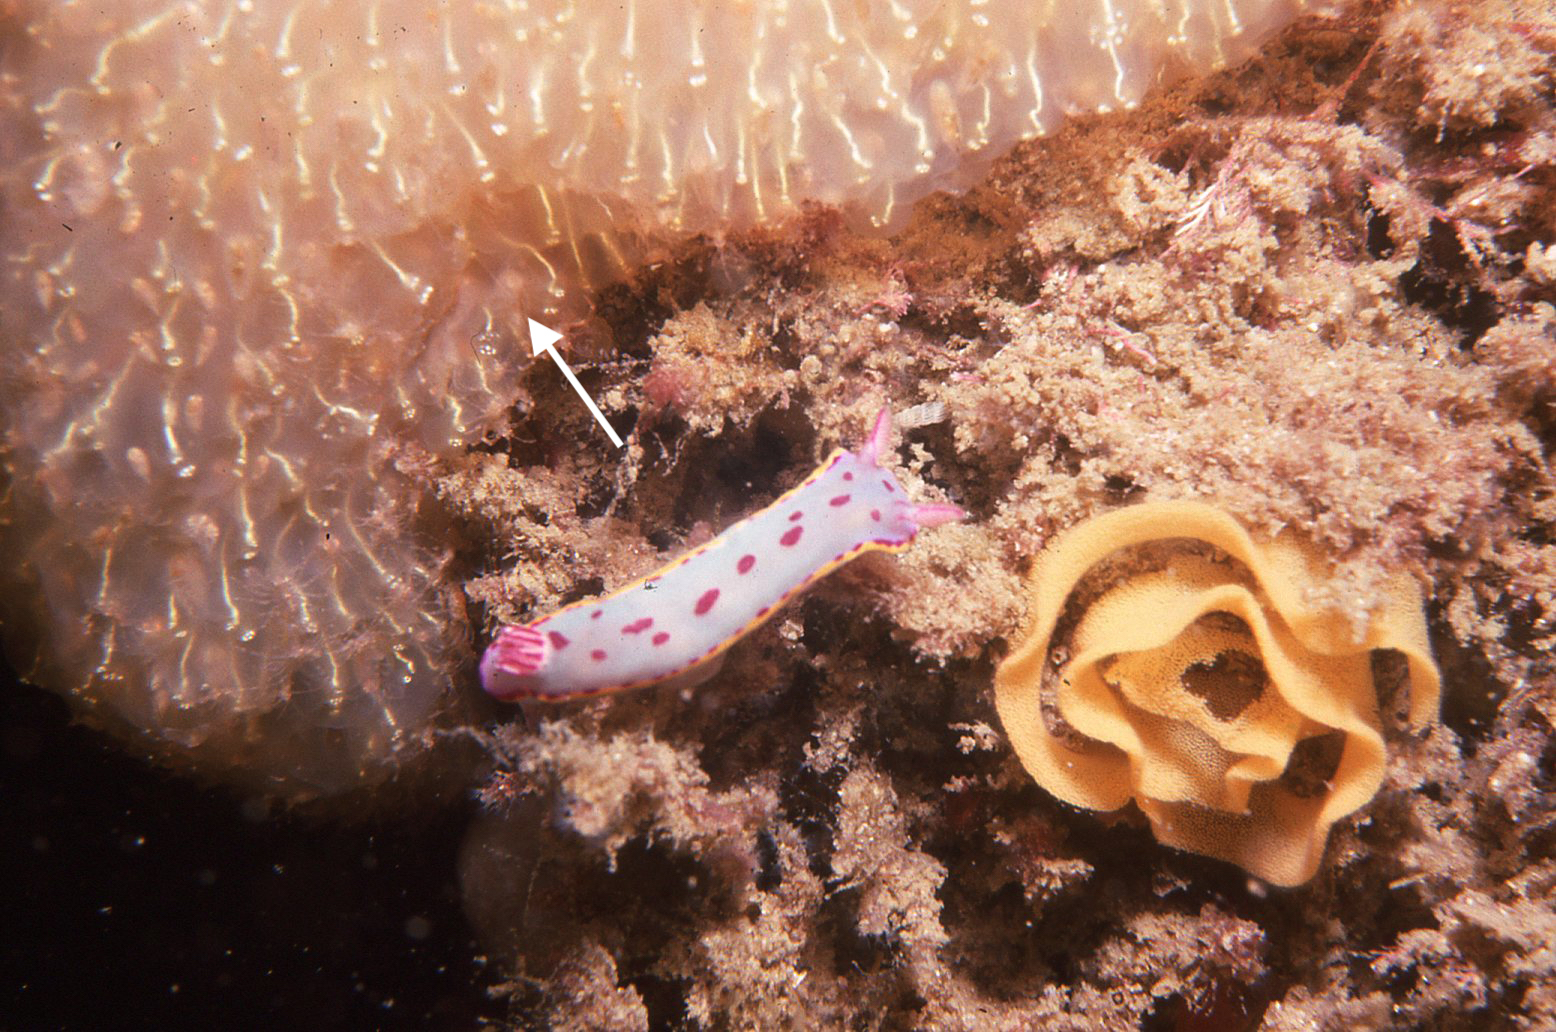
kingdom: Animalia
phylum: Chordata
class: Ascidiacea
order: Aplousobranchia
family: Pseudodistomidae
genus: Pseudodistoma
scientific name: Pseudodistoma fragile
